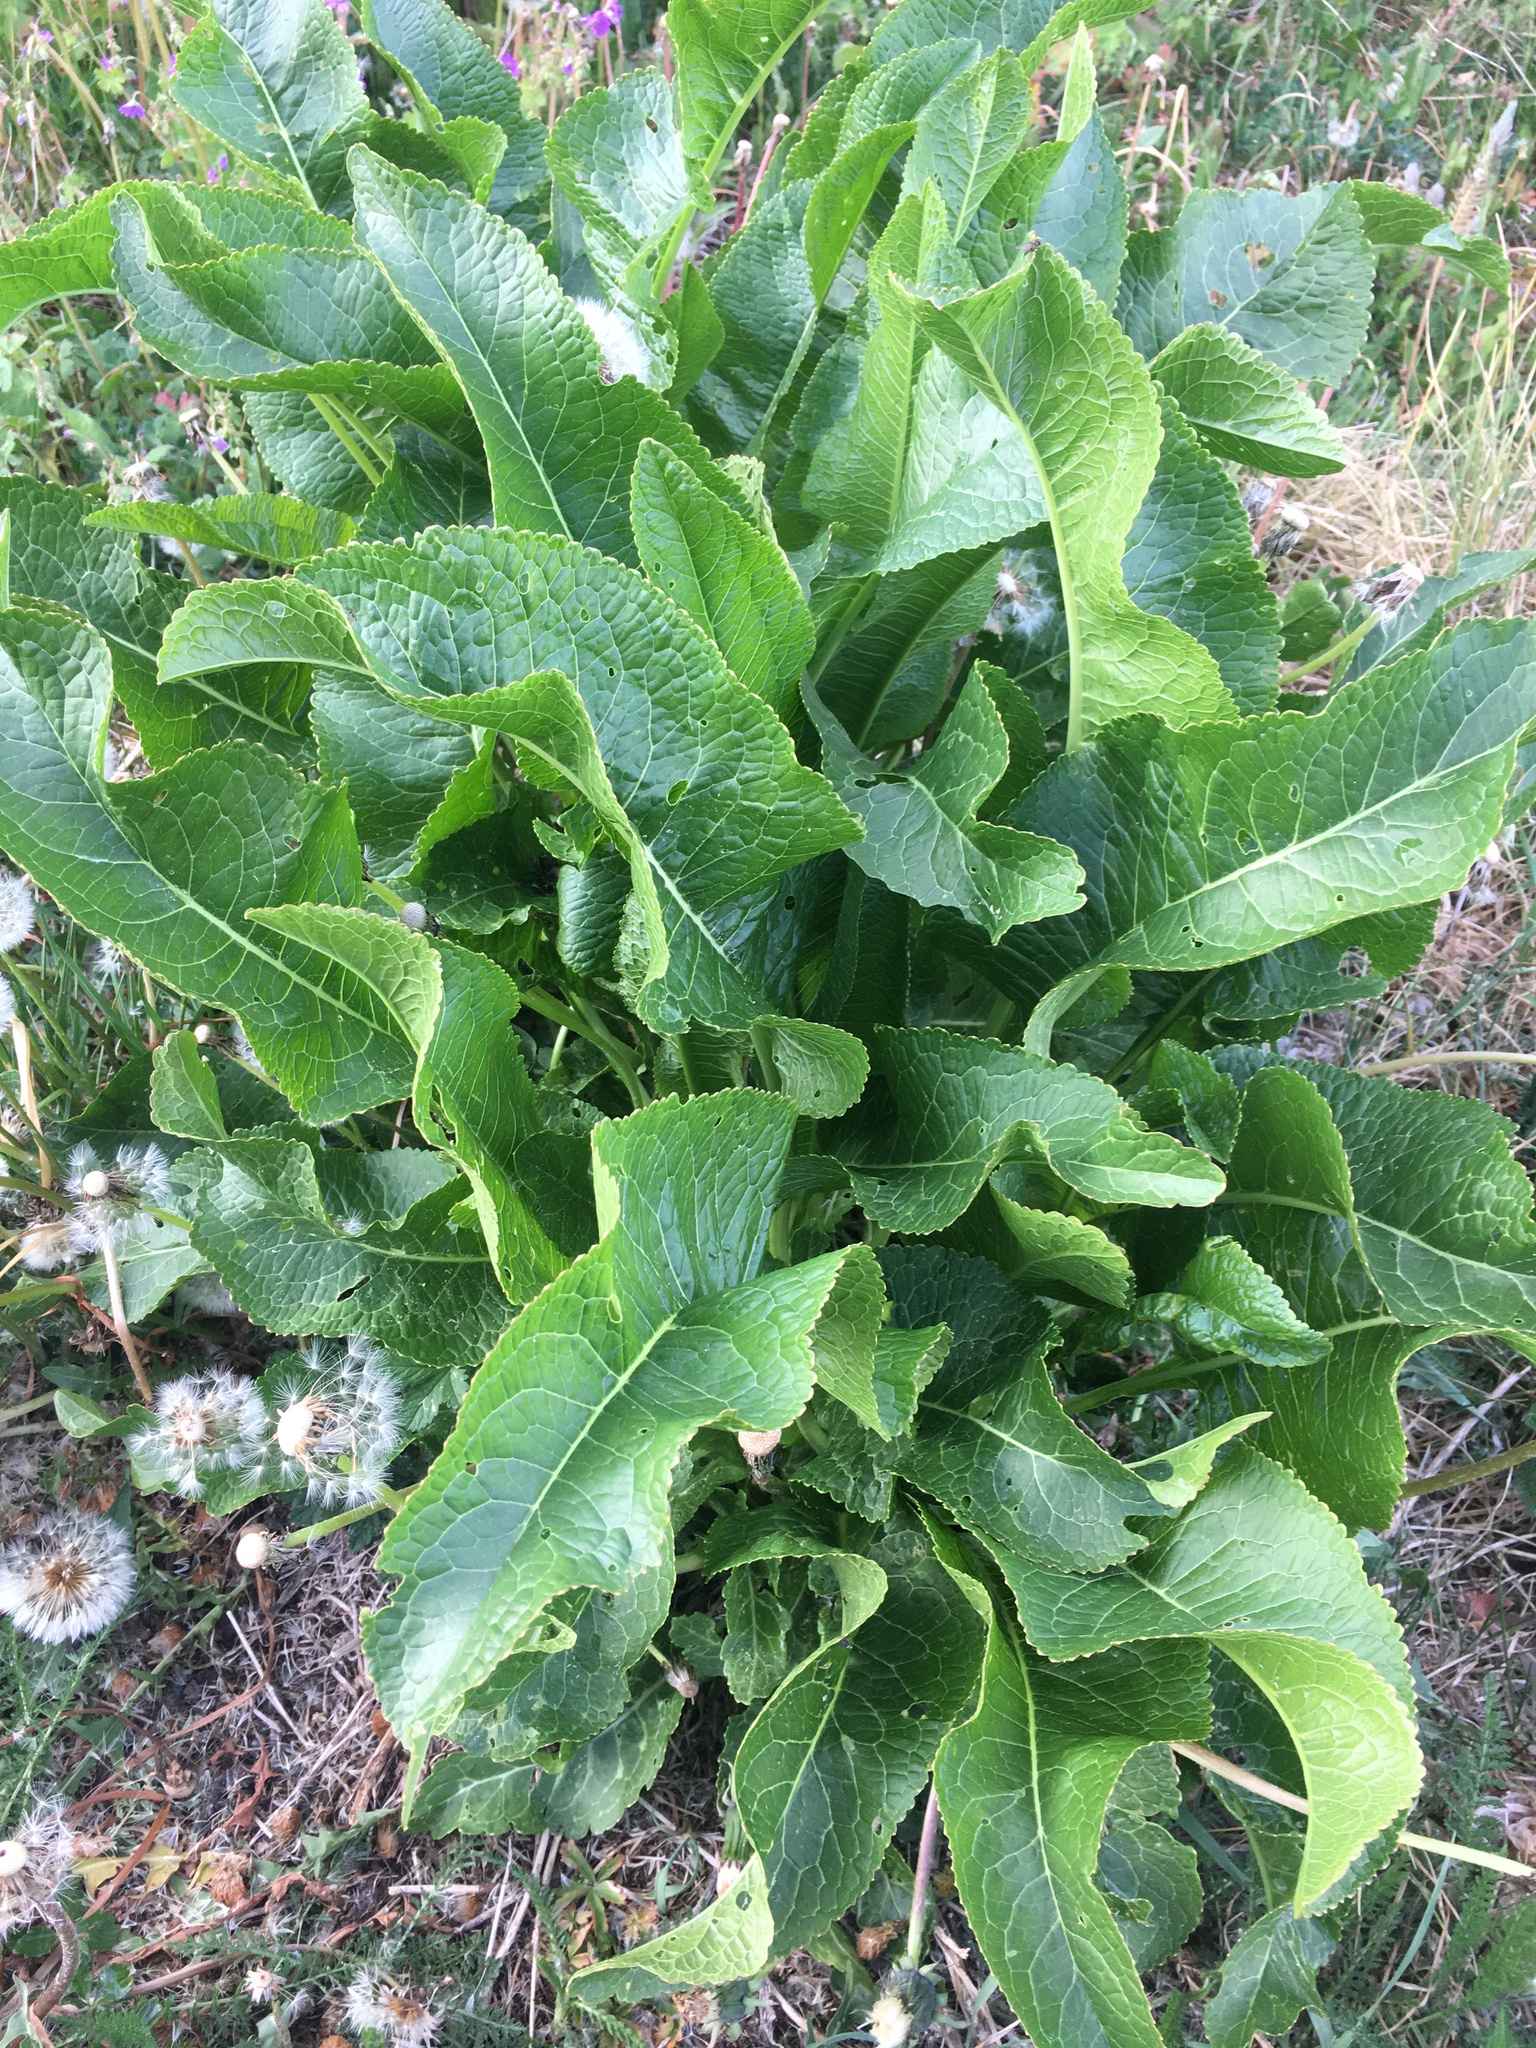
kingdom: Plantae
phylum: Tracheophyta
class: Magnoliopsida
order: Brassicales
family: Brassicaceae
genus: Armoracia
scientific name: Armoracia rusticana
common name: Horseradish
